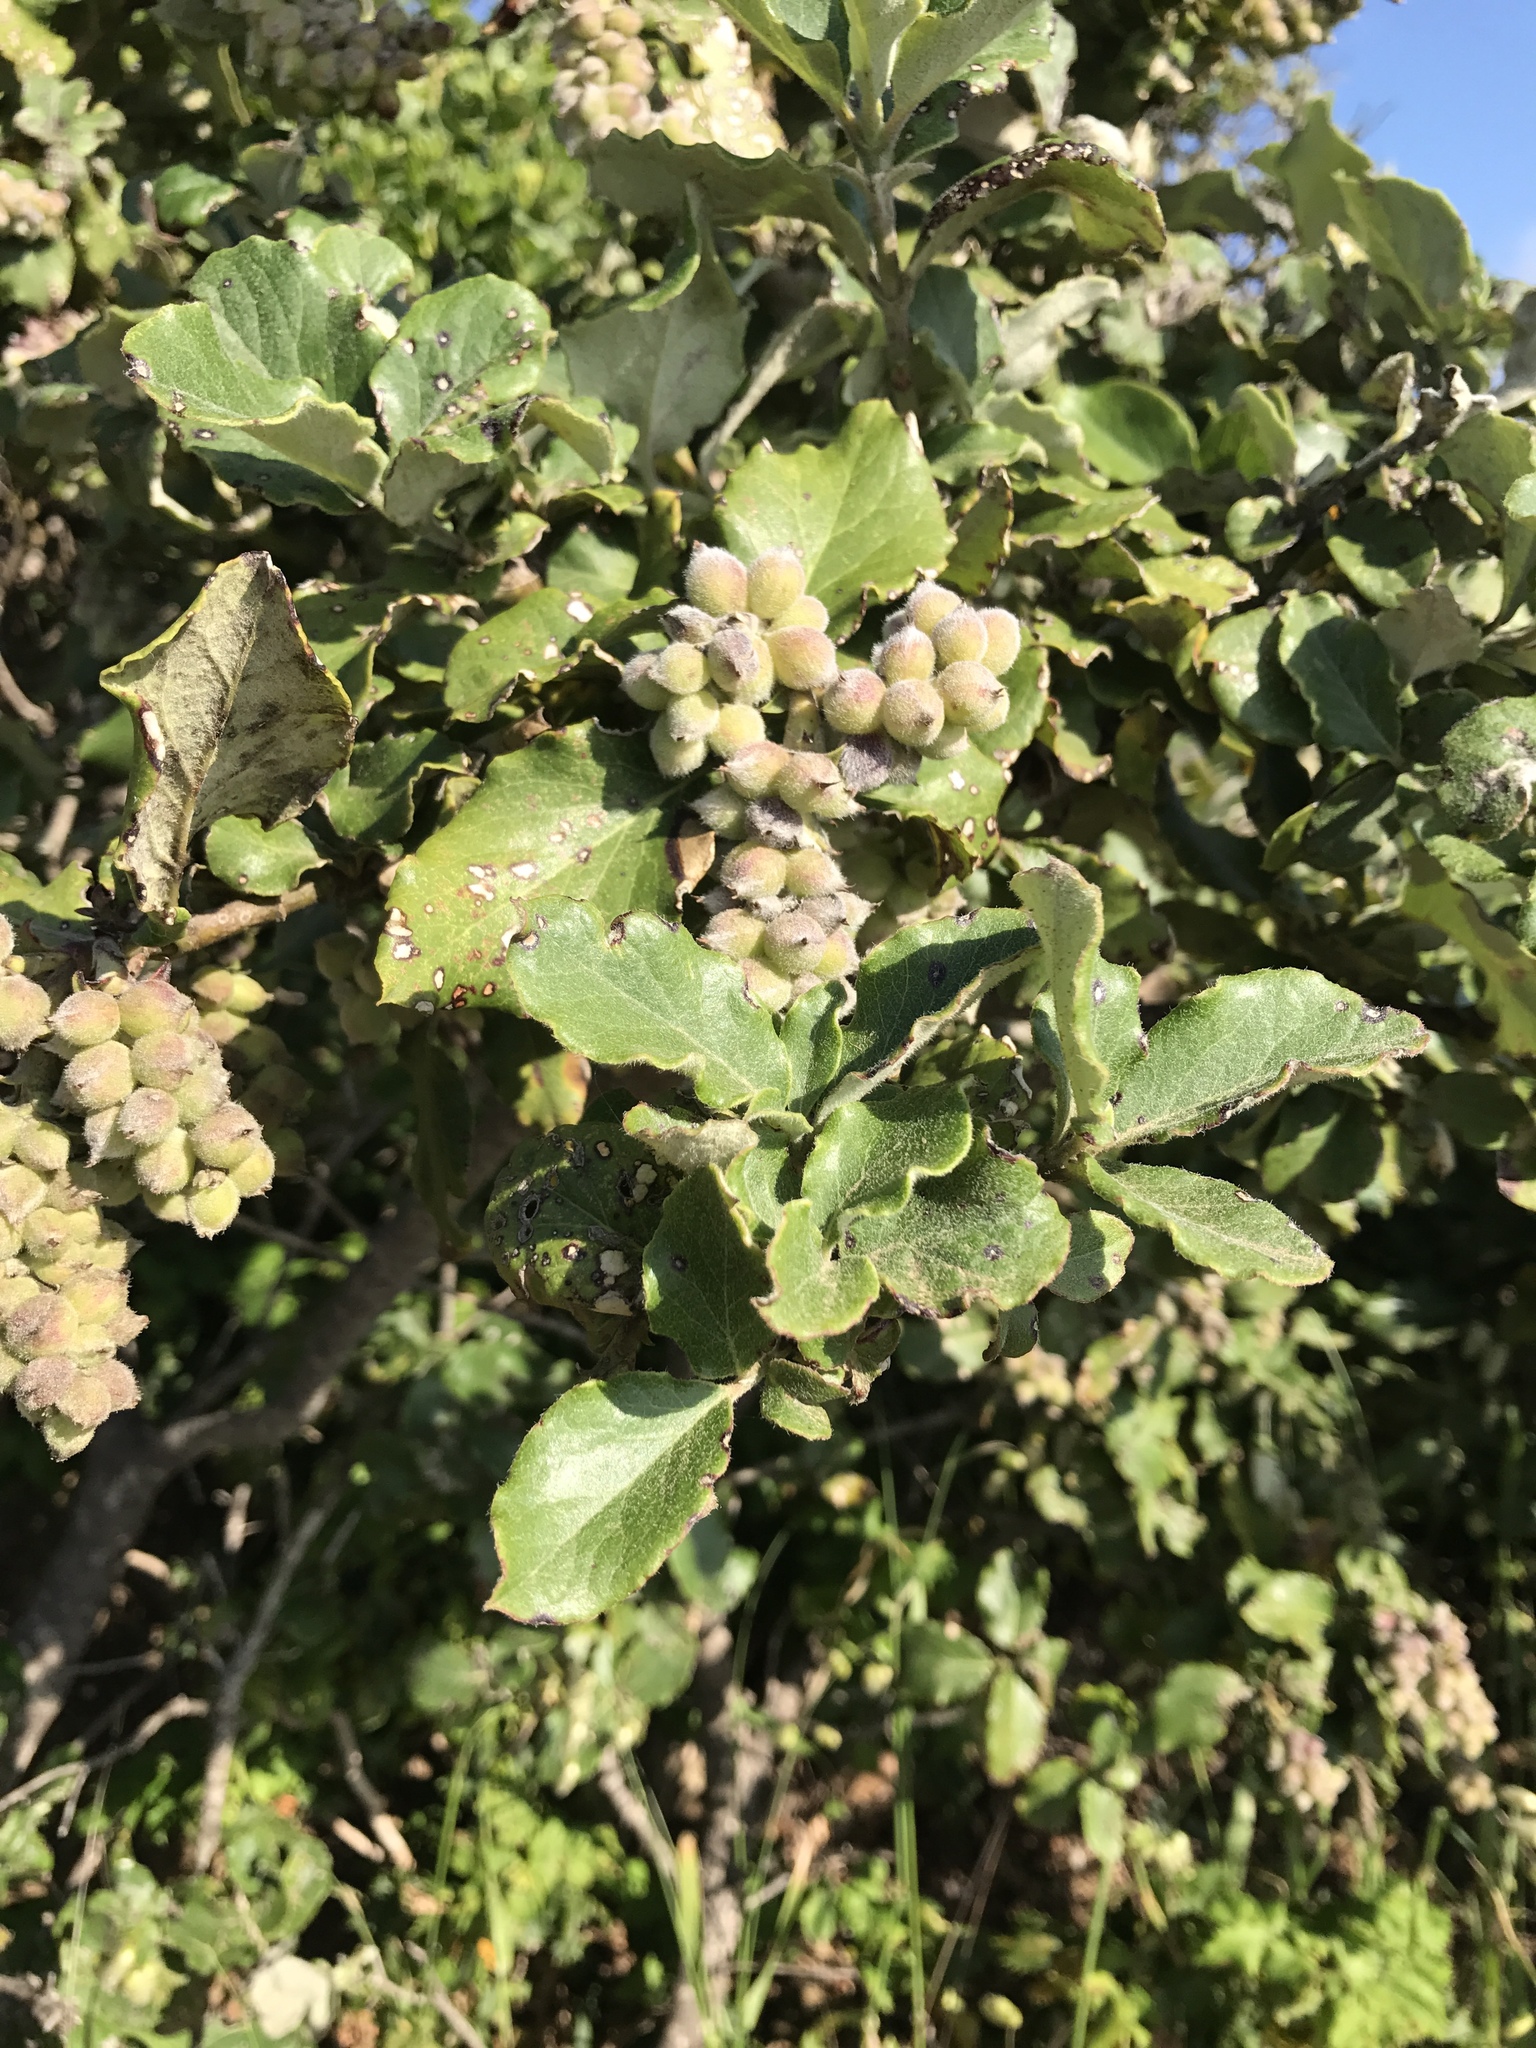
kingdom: Plantae
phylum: Tracheophyta
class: Magnoliopsida
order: Garryales
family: Garryaceae
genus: Garrya
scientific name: Garrya elliptica
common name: Silk-tassel
